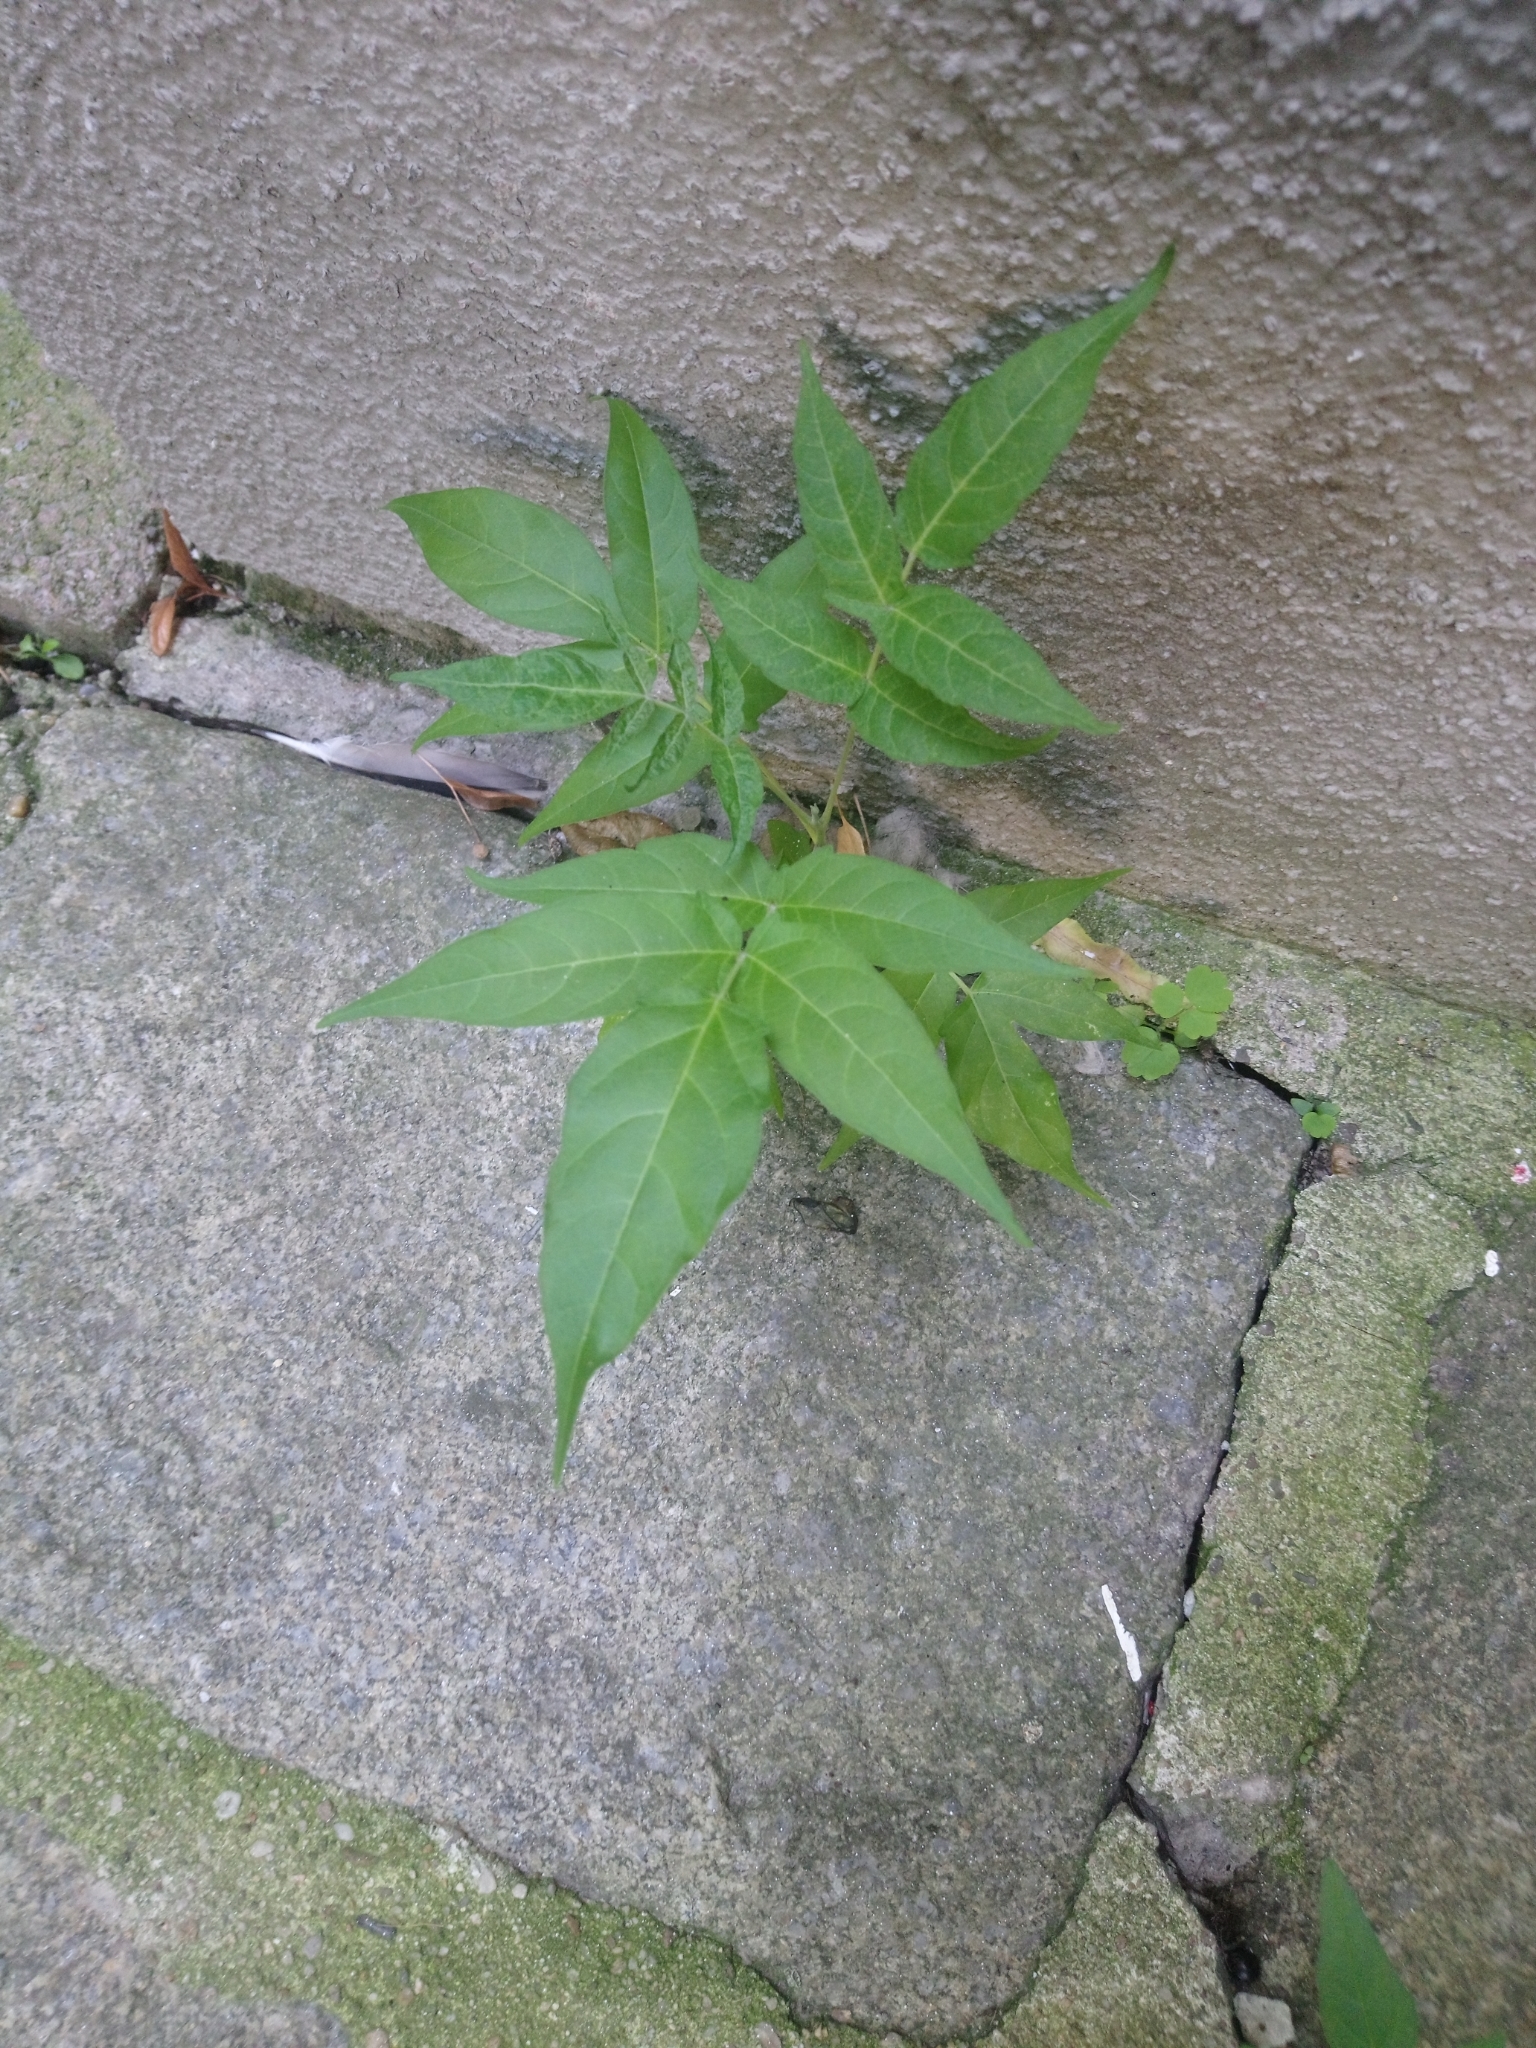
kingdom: Plantae
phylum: Tracheophyta
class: Magnoliopsida
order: Sapindales
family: Simaroubaceae
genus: Ailanthus
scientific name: Ailanthus altissima
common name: Tree-of-heaven
